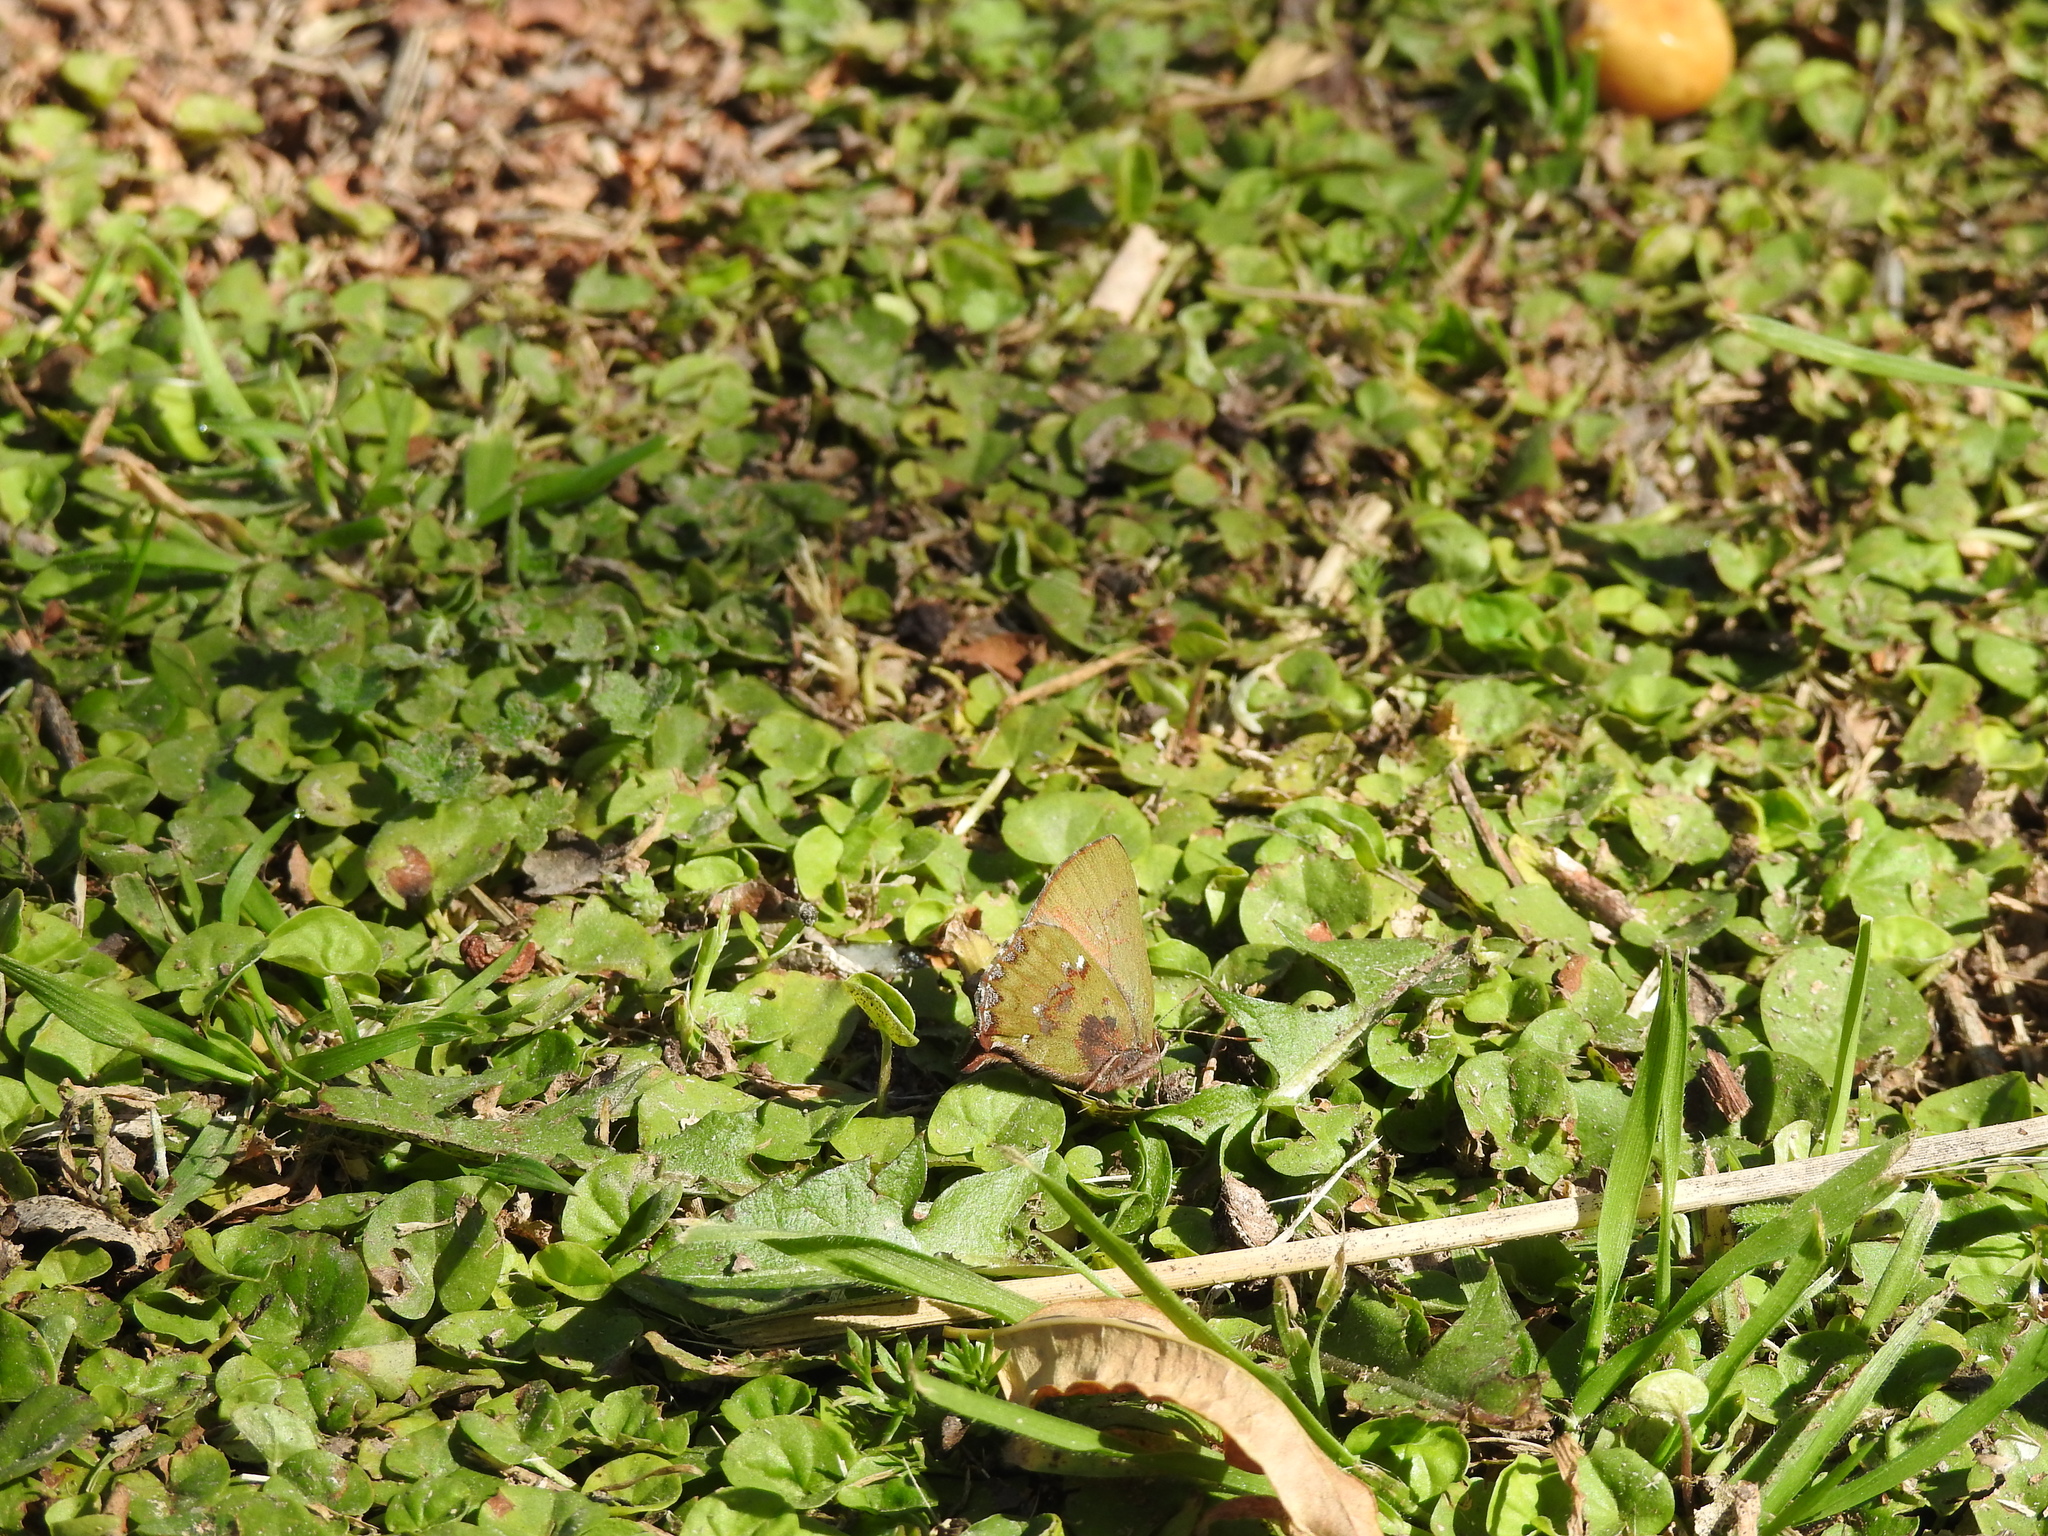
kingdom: Animalia
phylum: Arthropoda
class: Insecta
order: Lepidoptera
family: Lycaenidae
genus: Cyanophrys
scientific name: Cyanophrys
